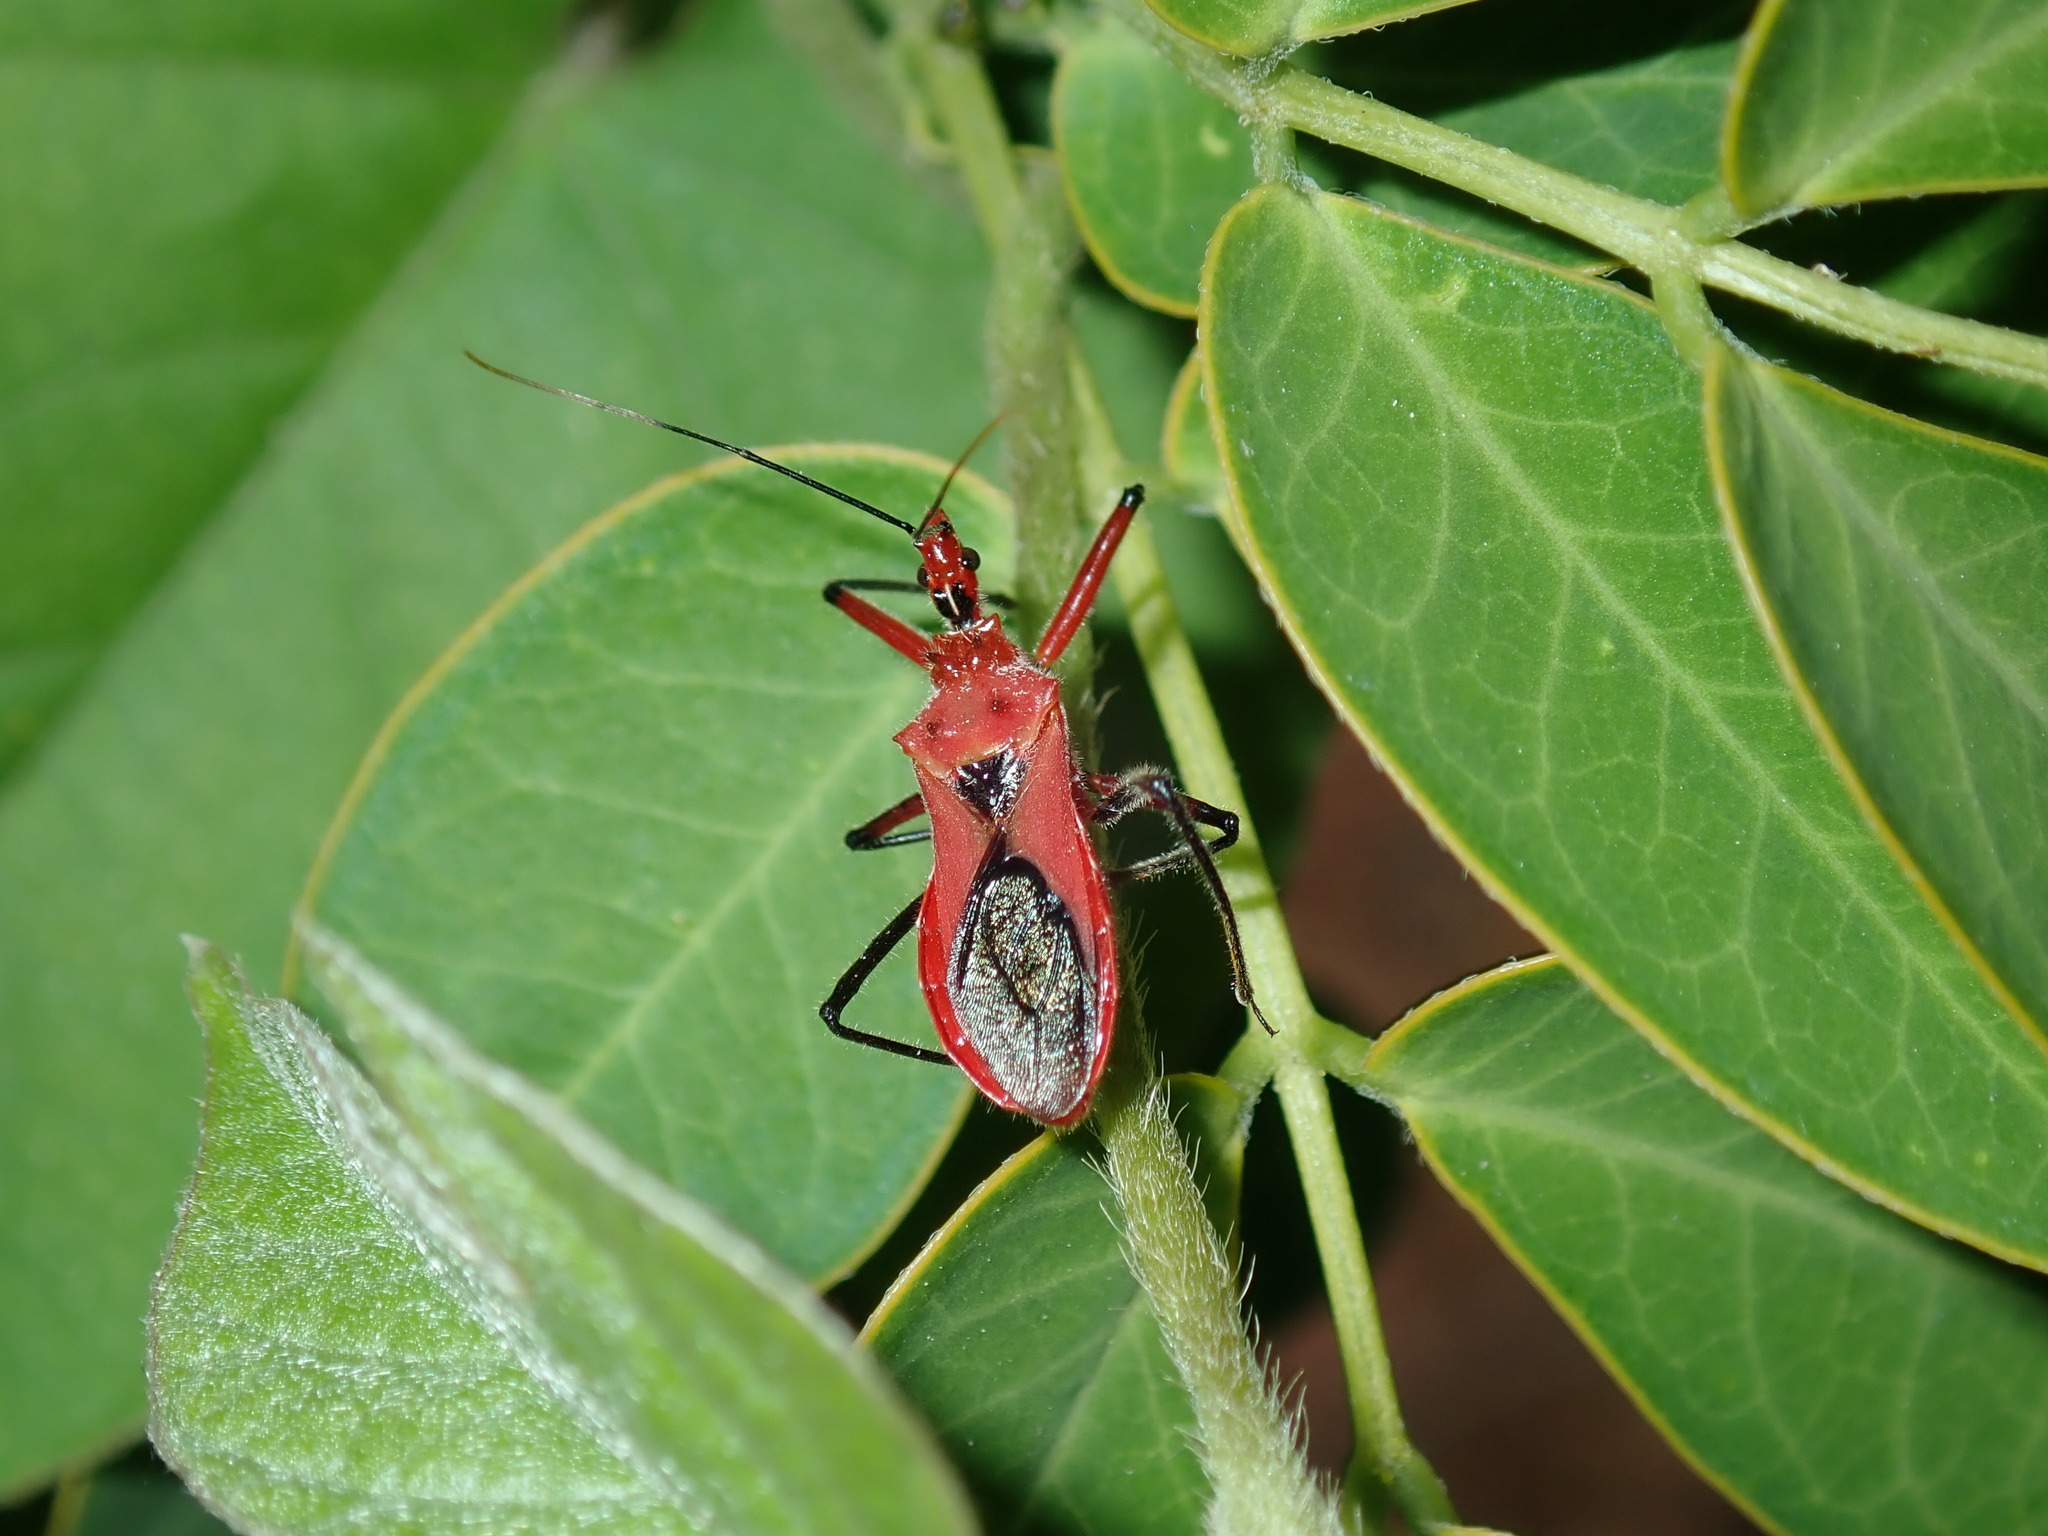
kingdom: Animalia
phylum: Arthropoda
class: Insecta
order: Hemiptera
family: Reduviidae
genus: Gminatus
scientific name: Gminatus australis
